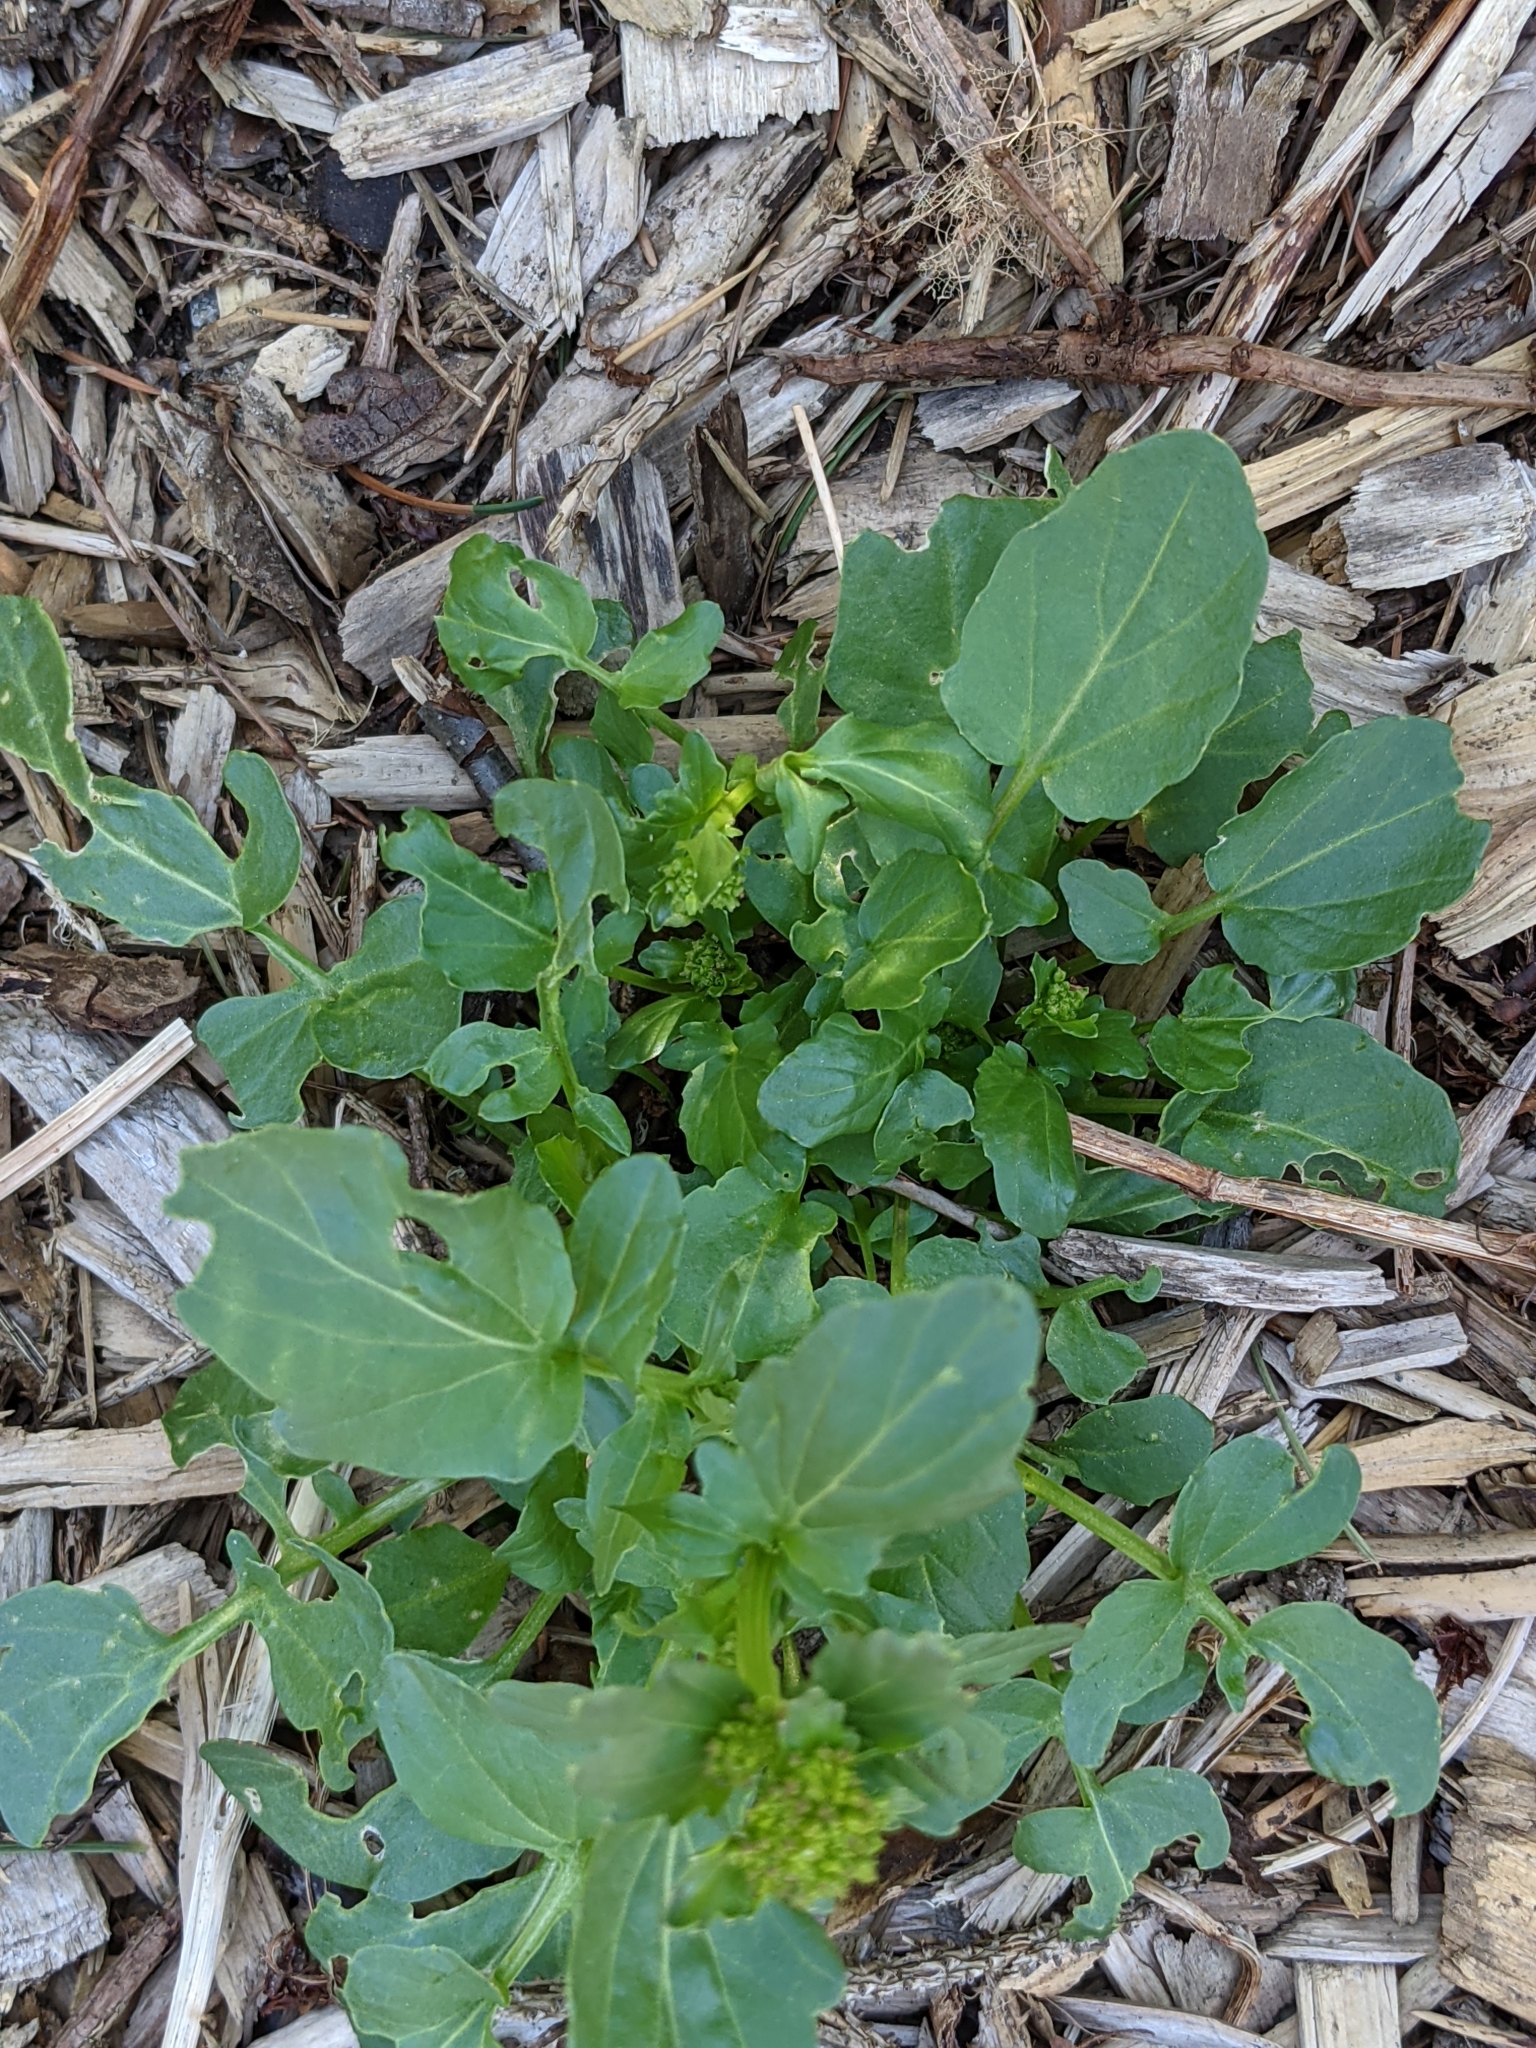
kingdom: Plantae
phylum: Tracheophyta
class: Magnoliopsida
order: Brassicales
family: Brassicaceae
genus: Barbarea
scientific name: Barbarea vulgaris
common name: Cressy-greens
